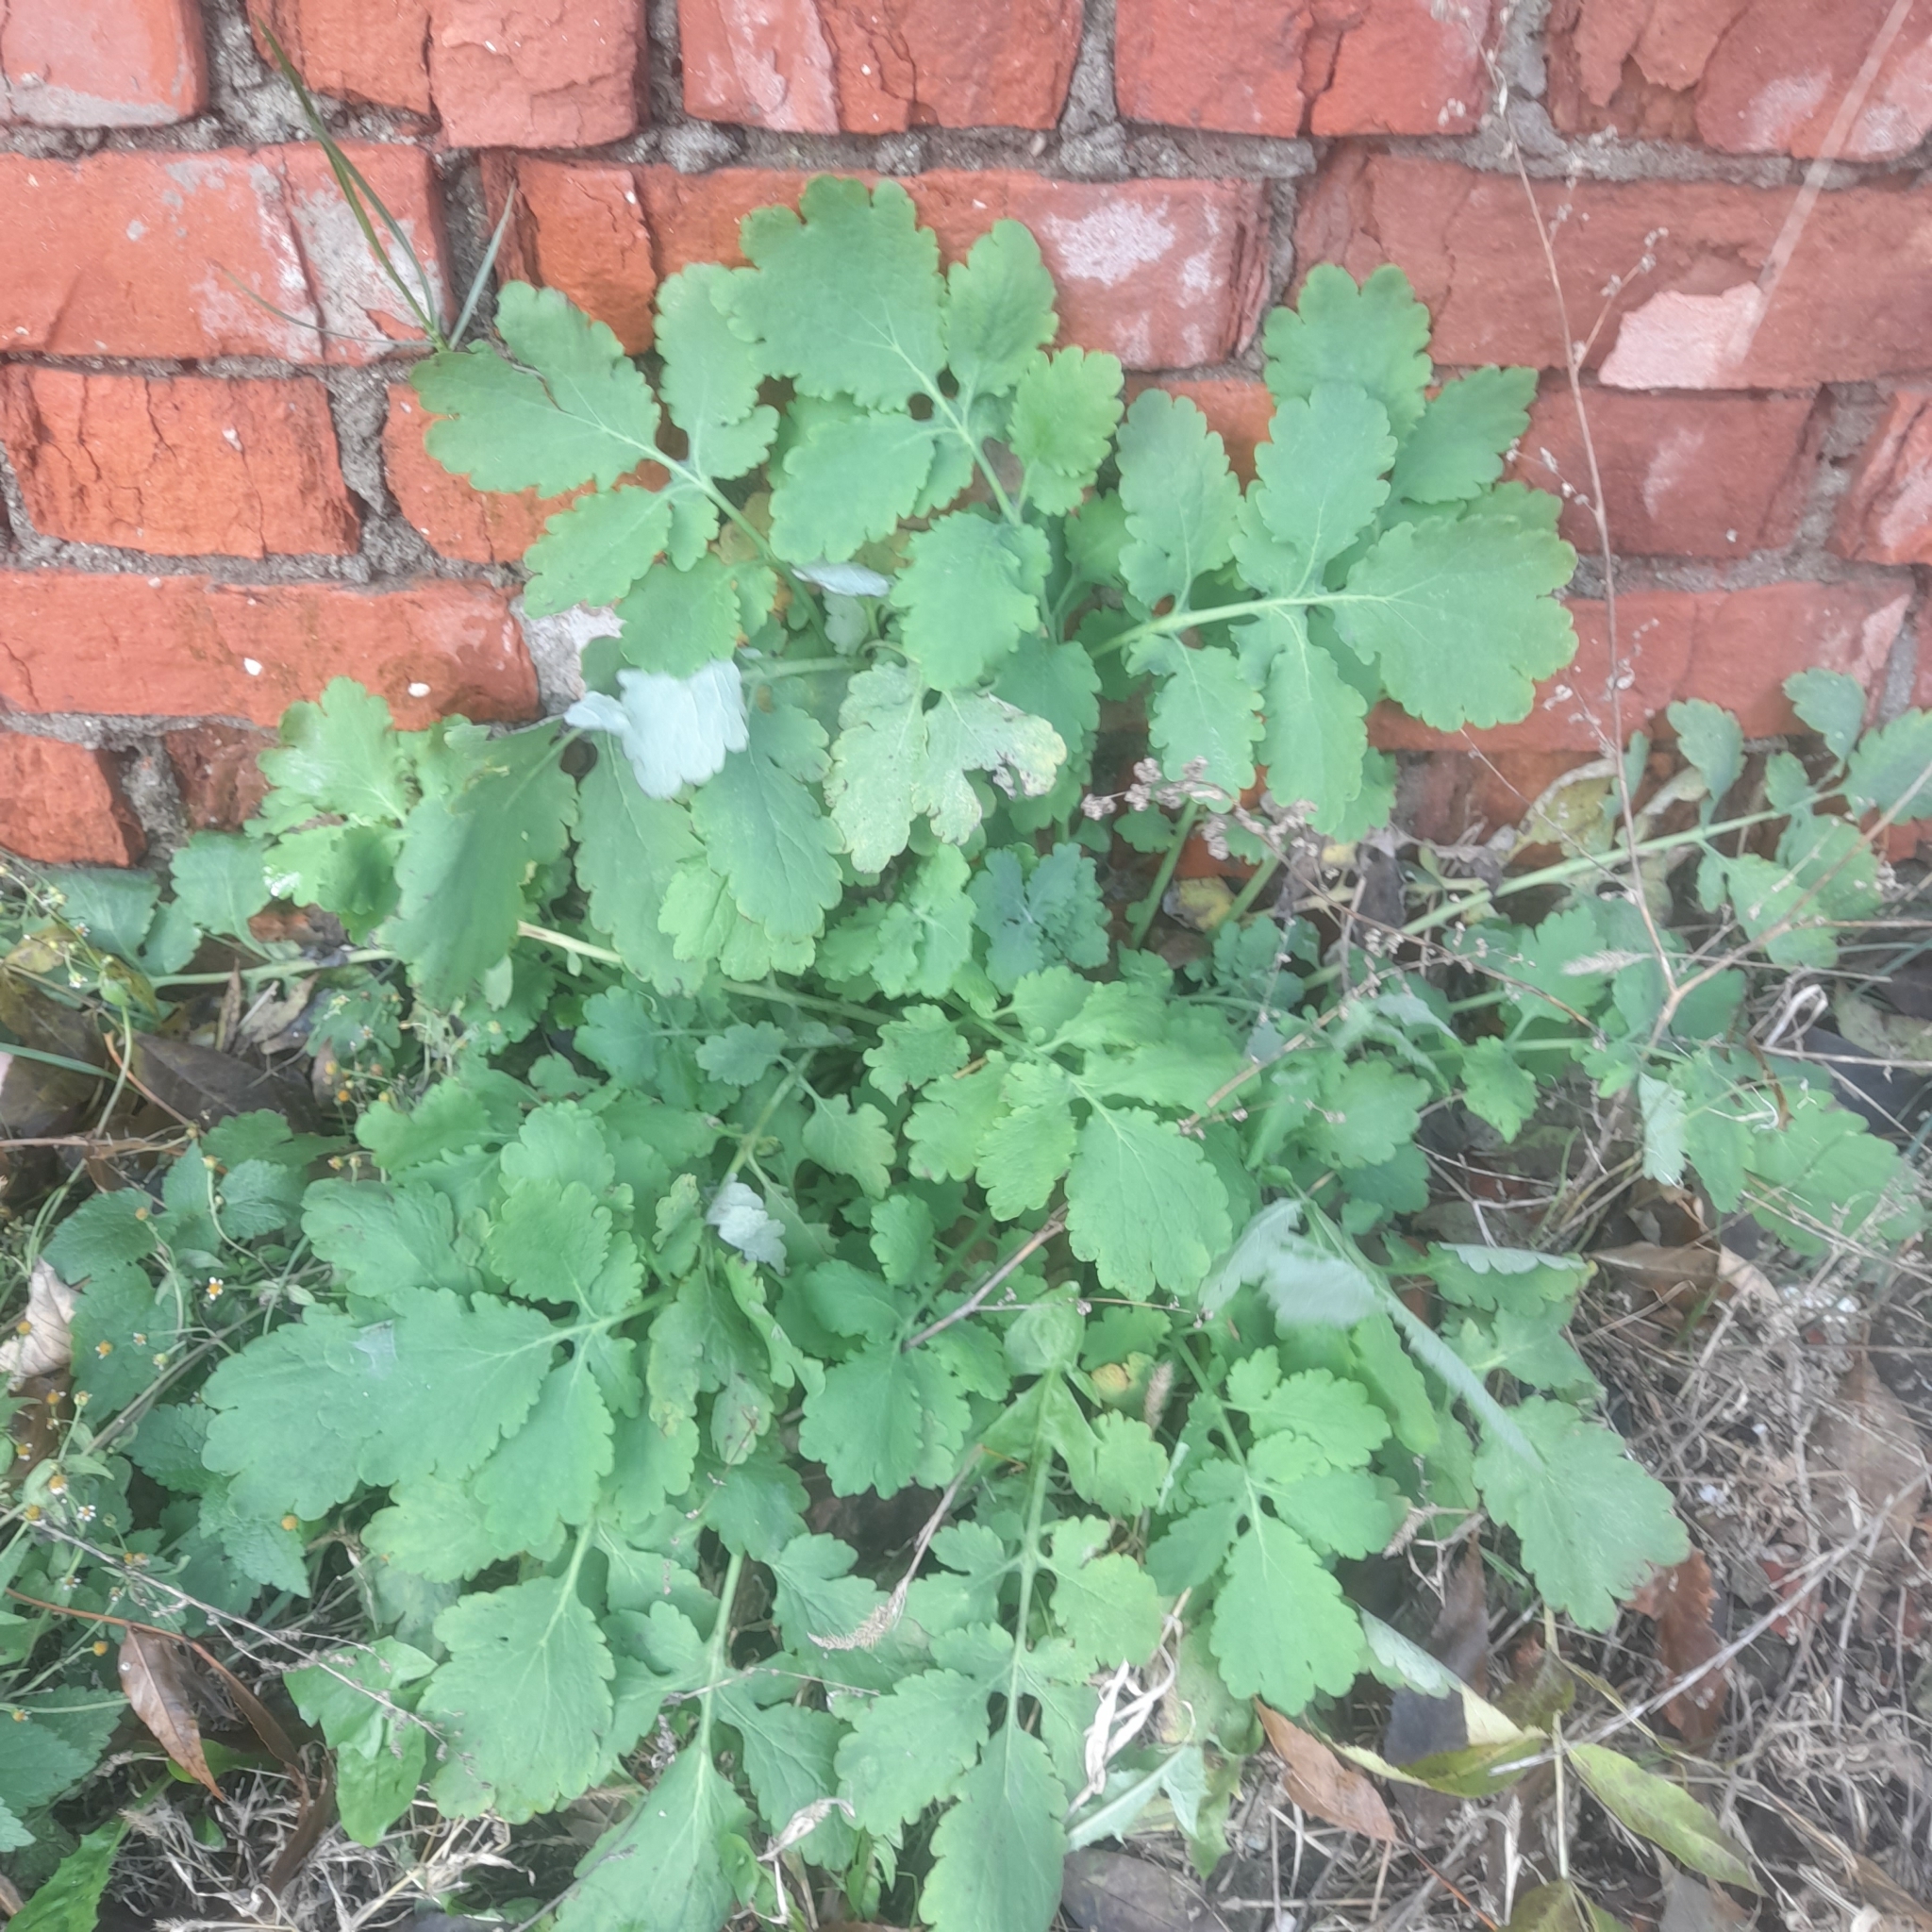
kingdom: Plantae
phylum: Tracheophyta
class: Magnoliopsida
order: Ranunculales
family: Papaveraceae
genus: Chelidonium
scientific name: Chelidonium majus
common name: Greater celandine
